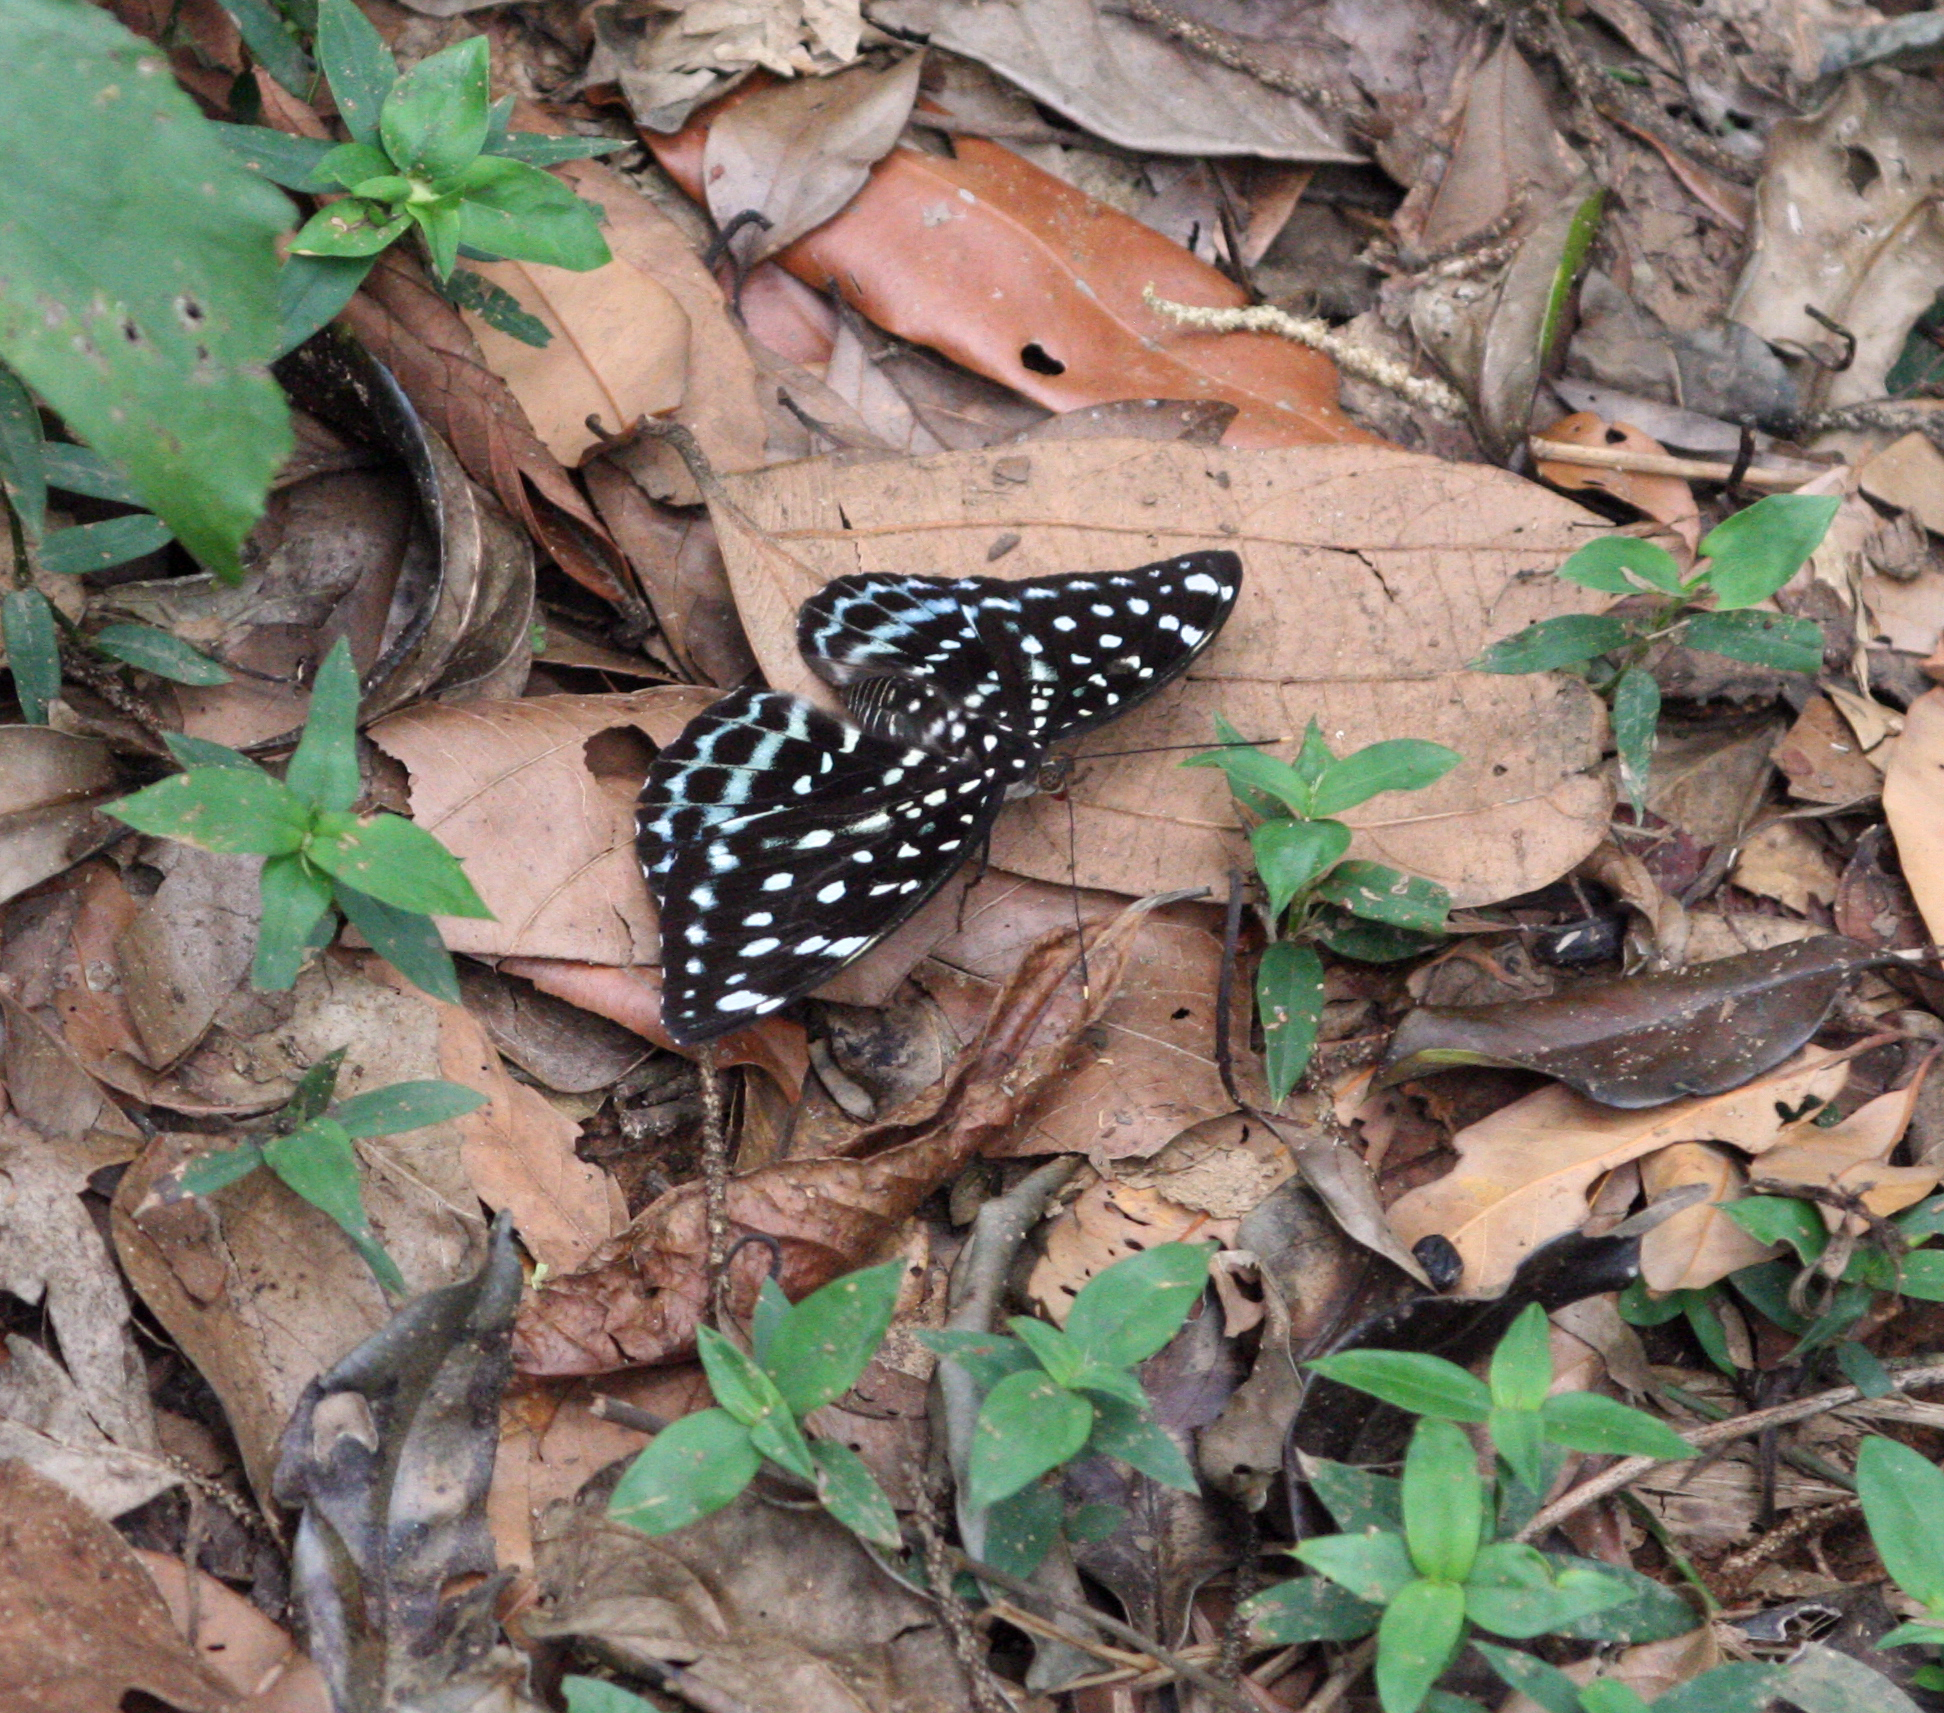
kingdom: Animalia
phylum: Arthropoda
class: Insecta
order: Lepidoptera
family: Nymphalidae
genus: Lexias
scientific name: Lexias
